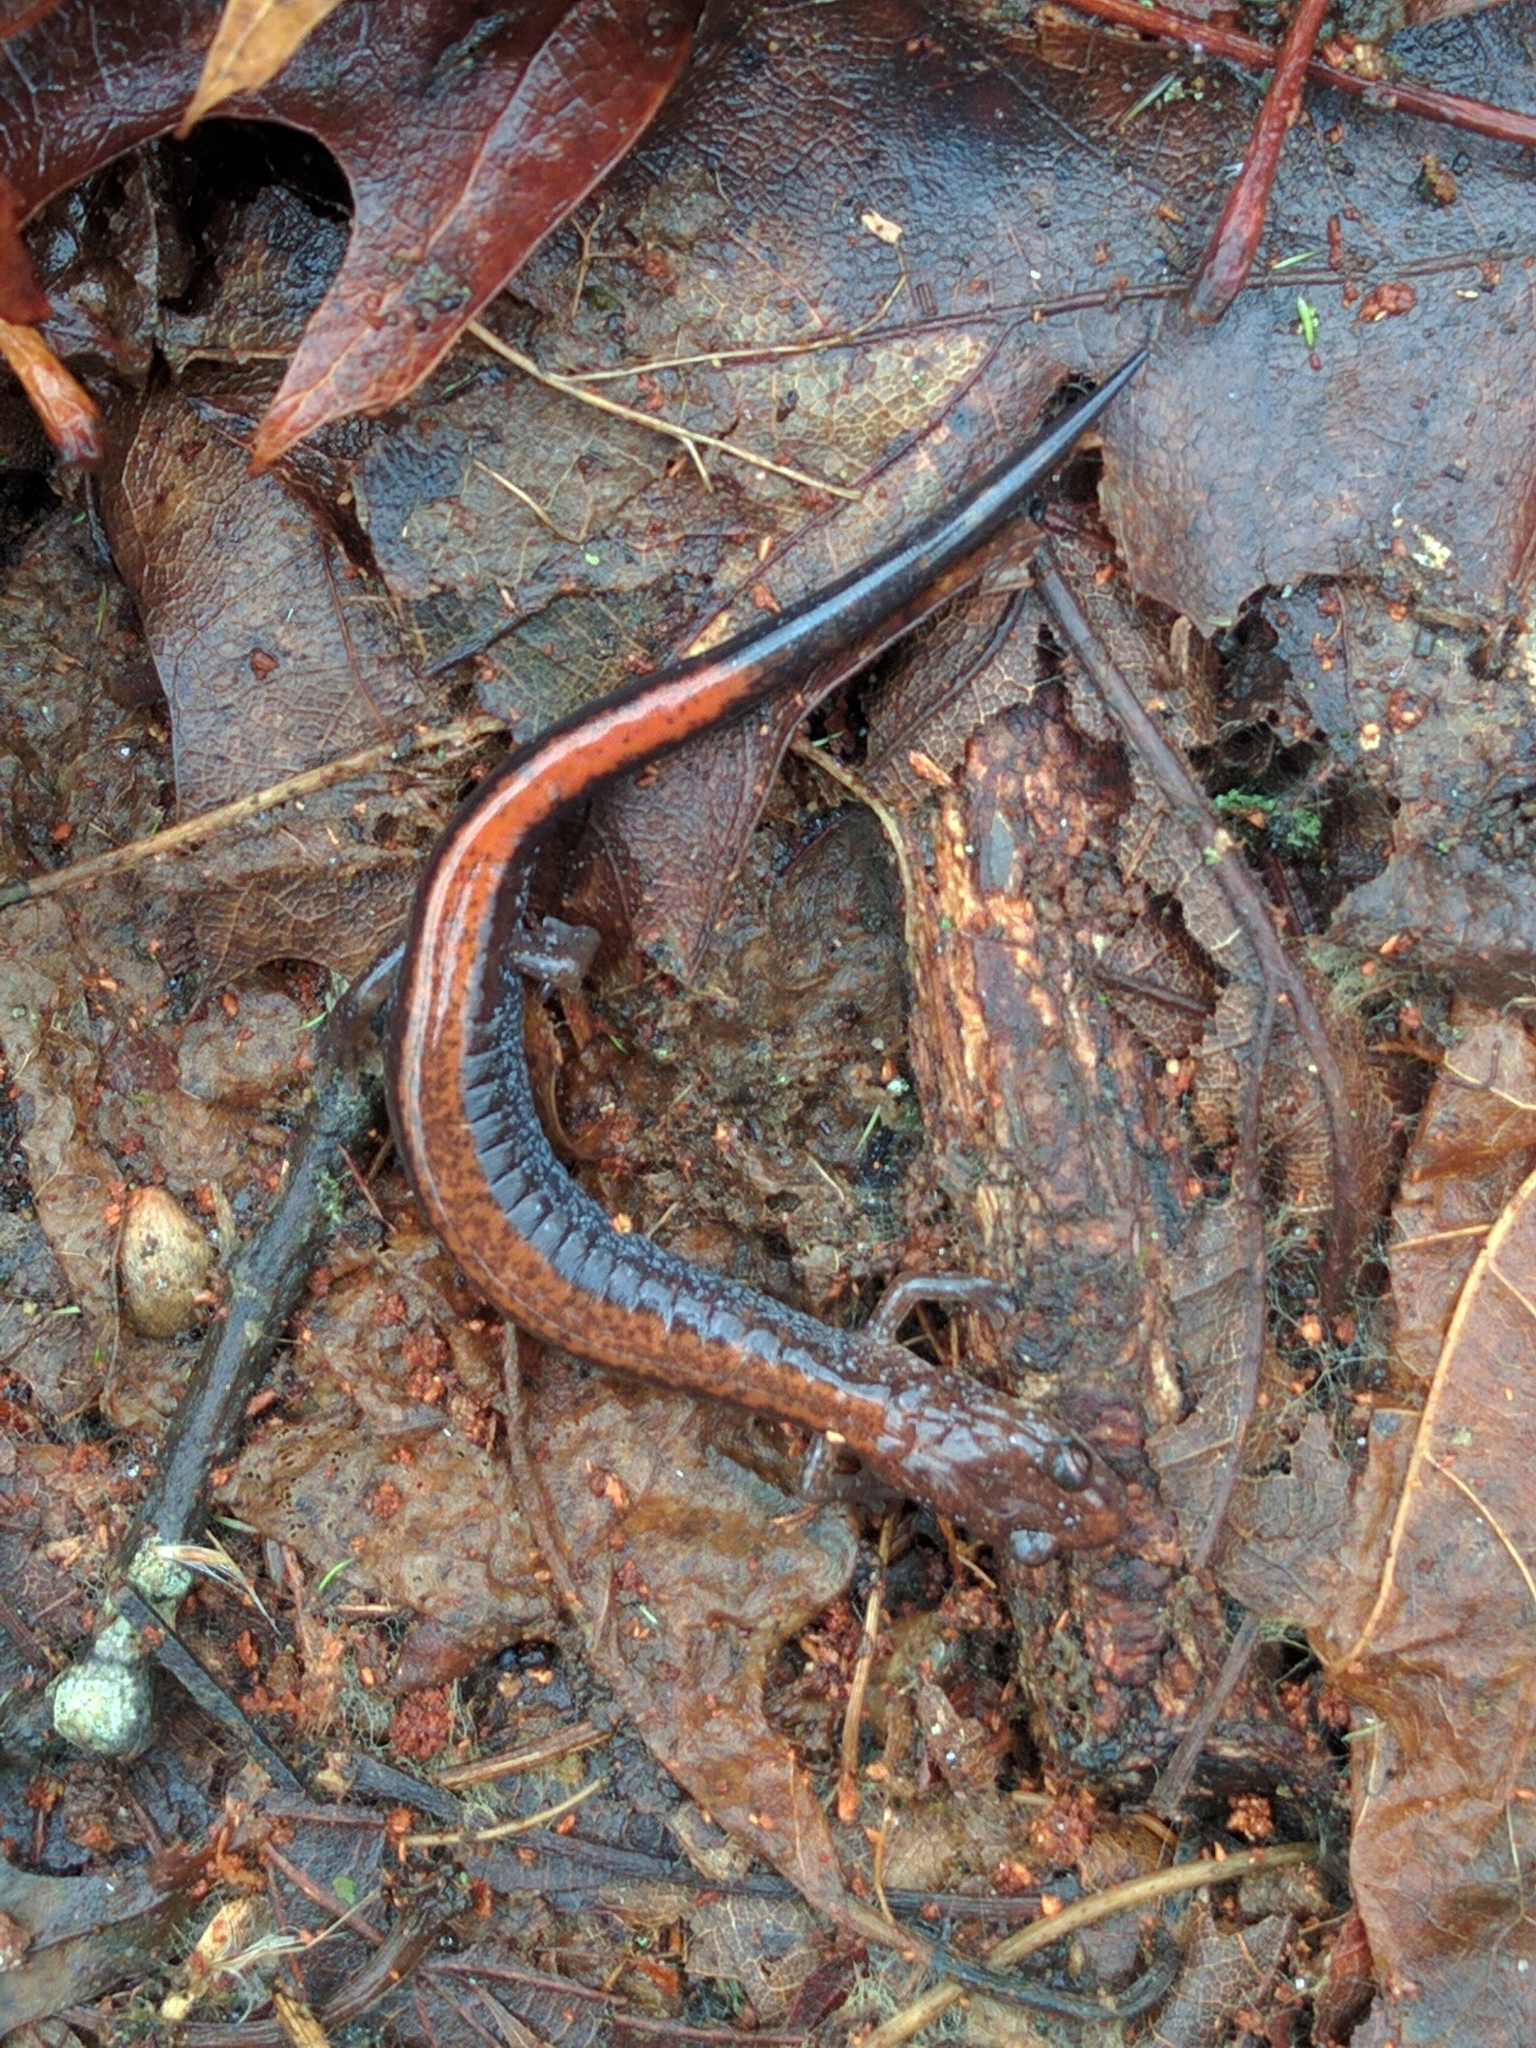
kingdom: Animalia
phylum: Chordata
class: Amphibia
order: Caudata
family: Plethodontidae
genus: Plethodon
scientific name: Plethodon cinereus
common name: Redback salamander
